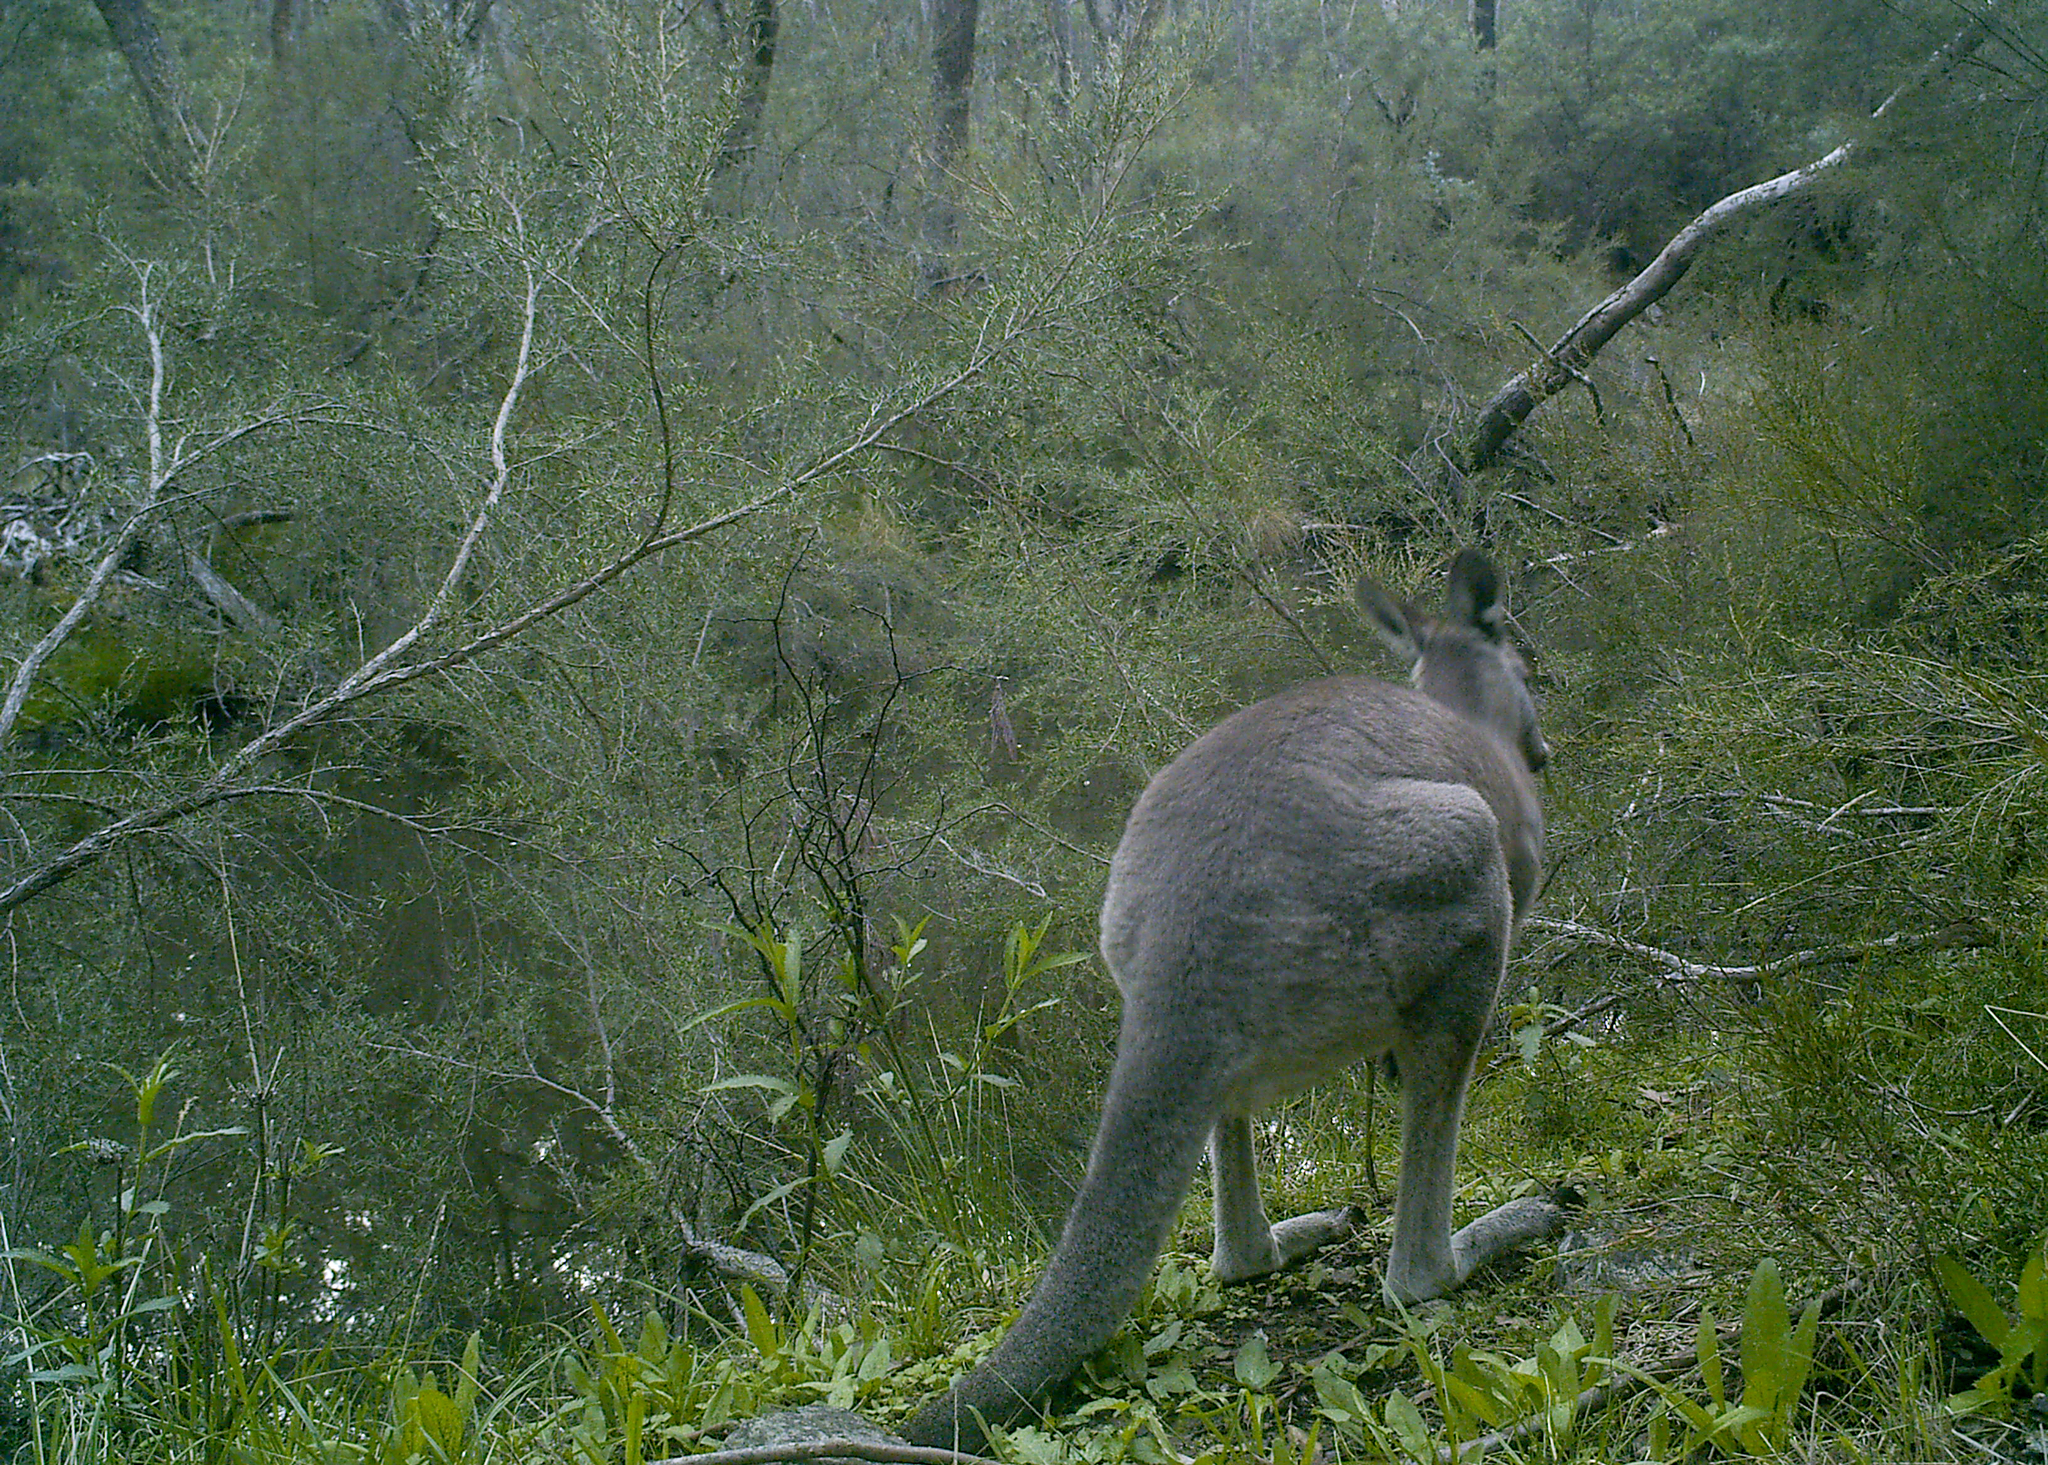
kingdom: Animalia
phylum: Chordata
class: Mammalia
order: Diprotodontia
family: Macropodidae
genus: Macropus
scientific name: Macropus giganteus
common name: Eastern grey kangaroo
